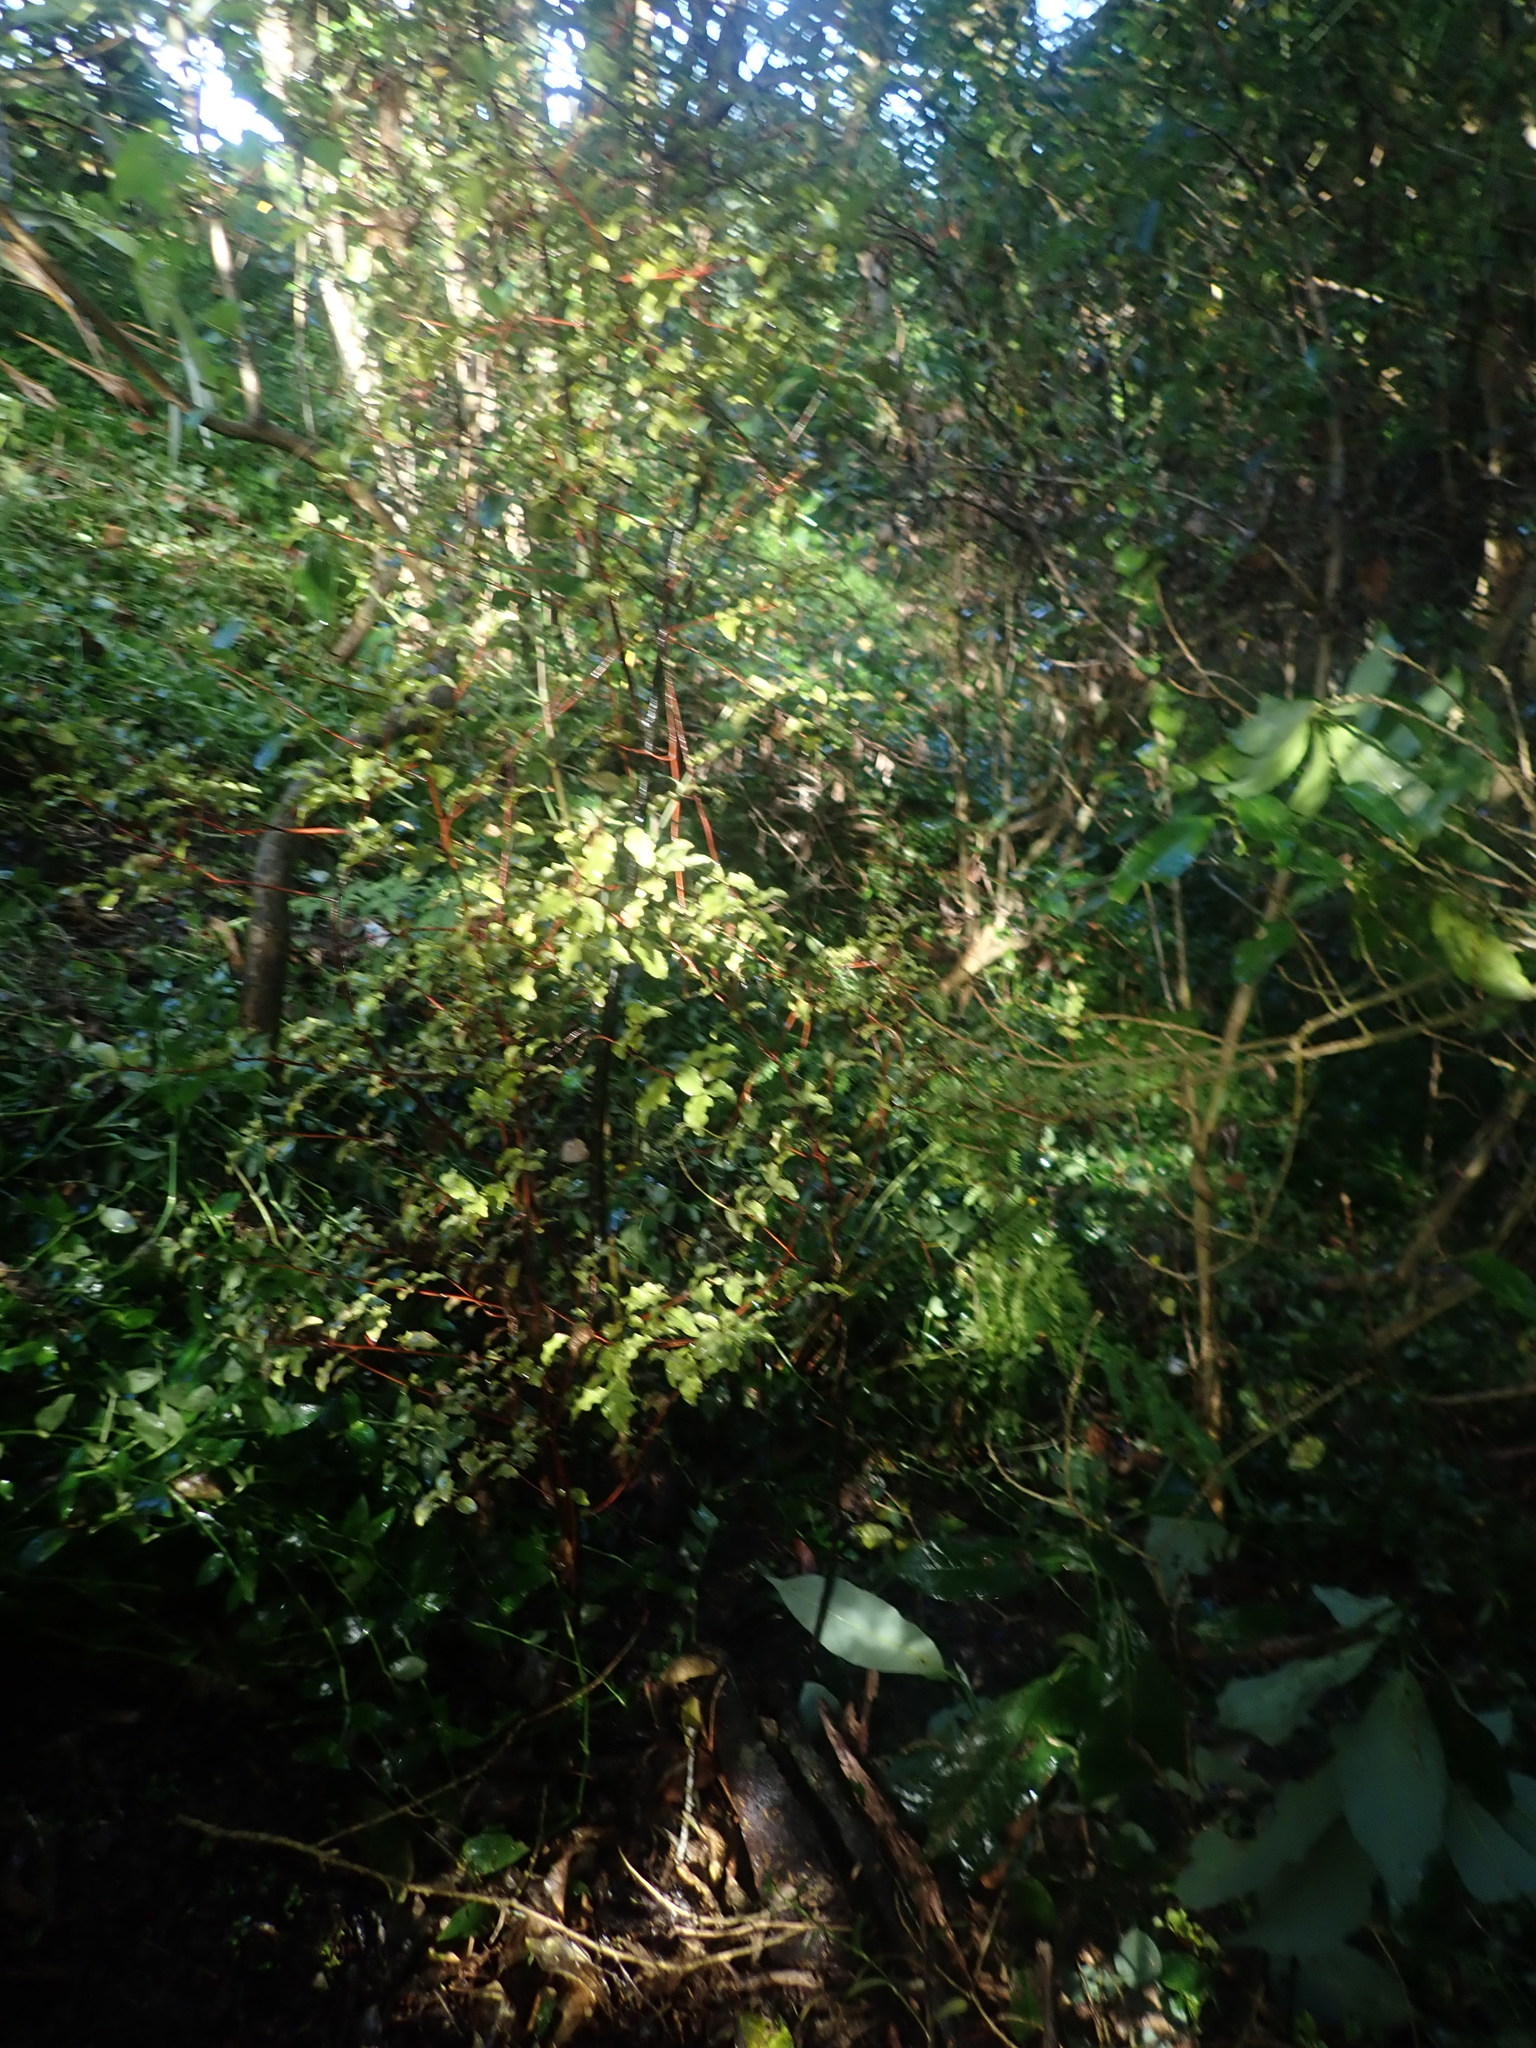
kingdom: Plantae
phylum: Tracheophyta
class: Liliopsida
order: Asparagales
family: Asparagaceae
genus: Cordyline
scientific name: Cordyline australis
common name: Cabbage-palm
